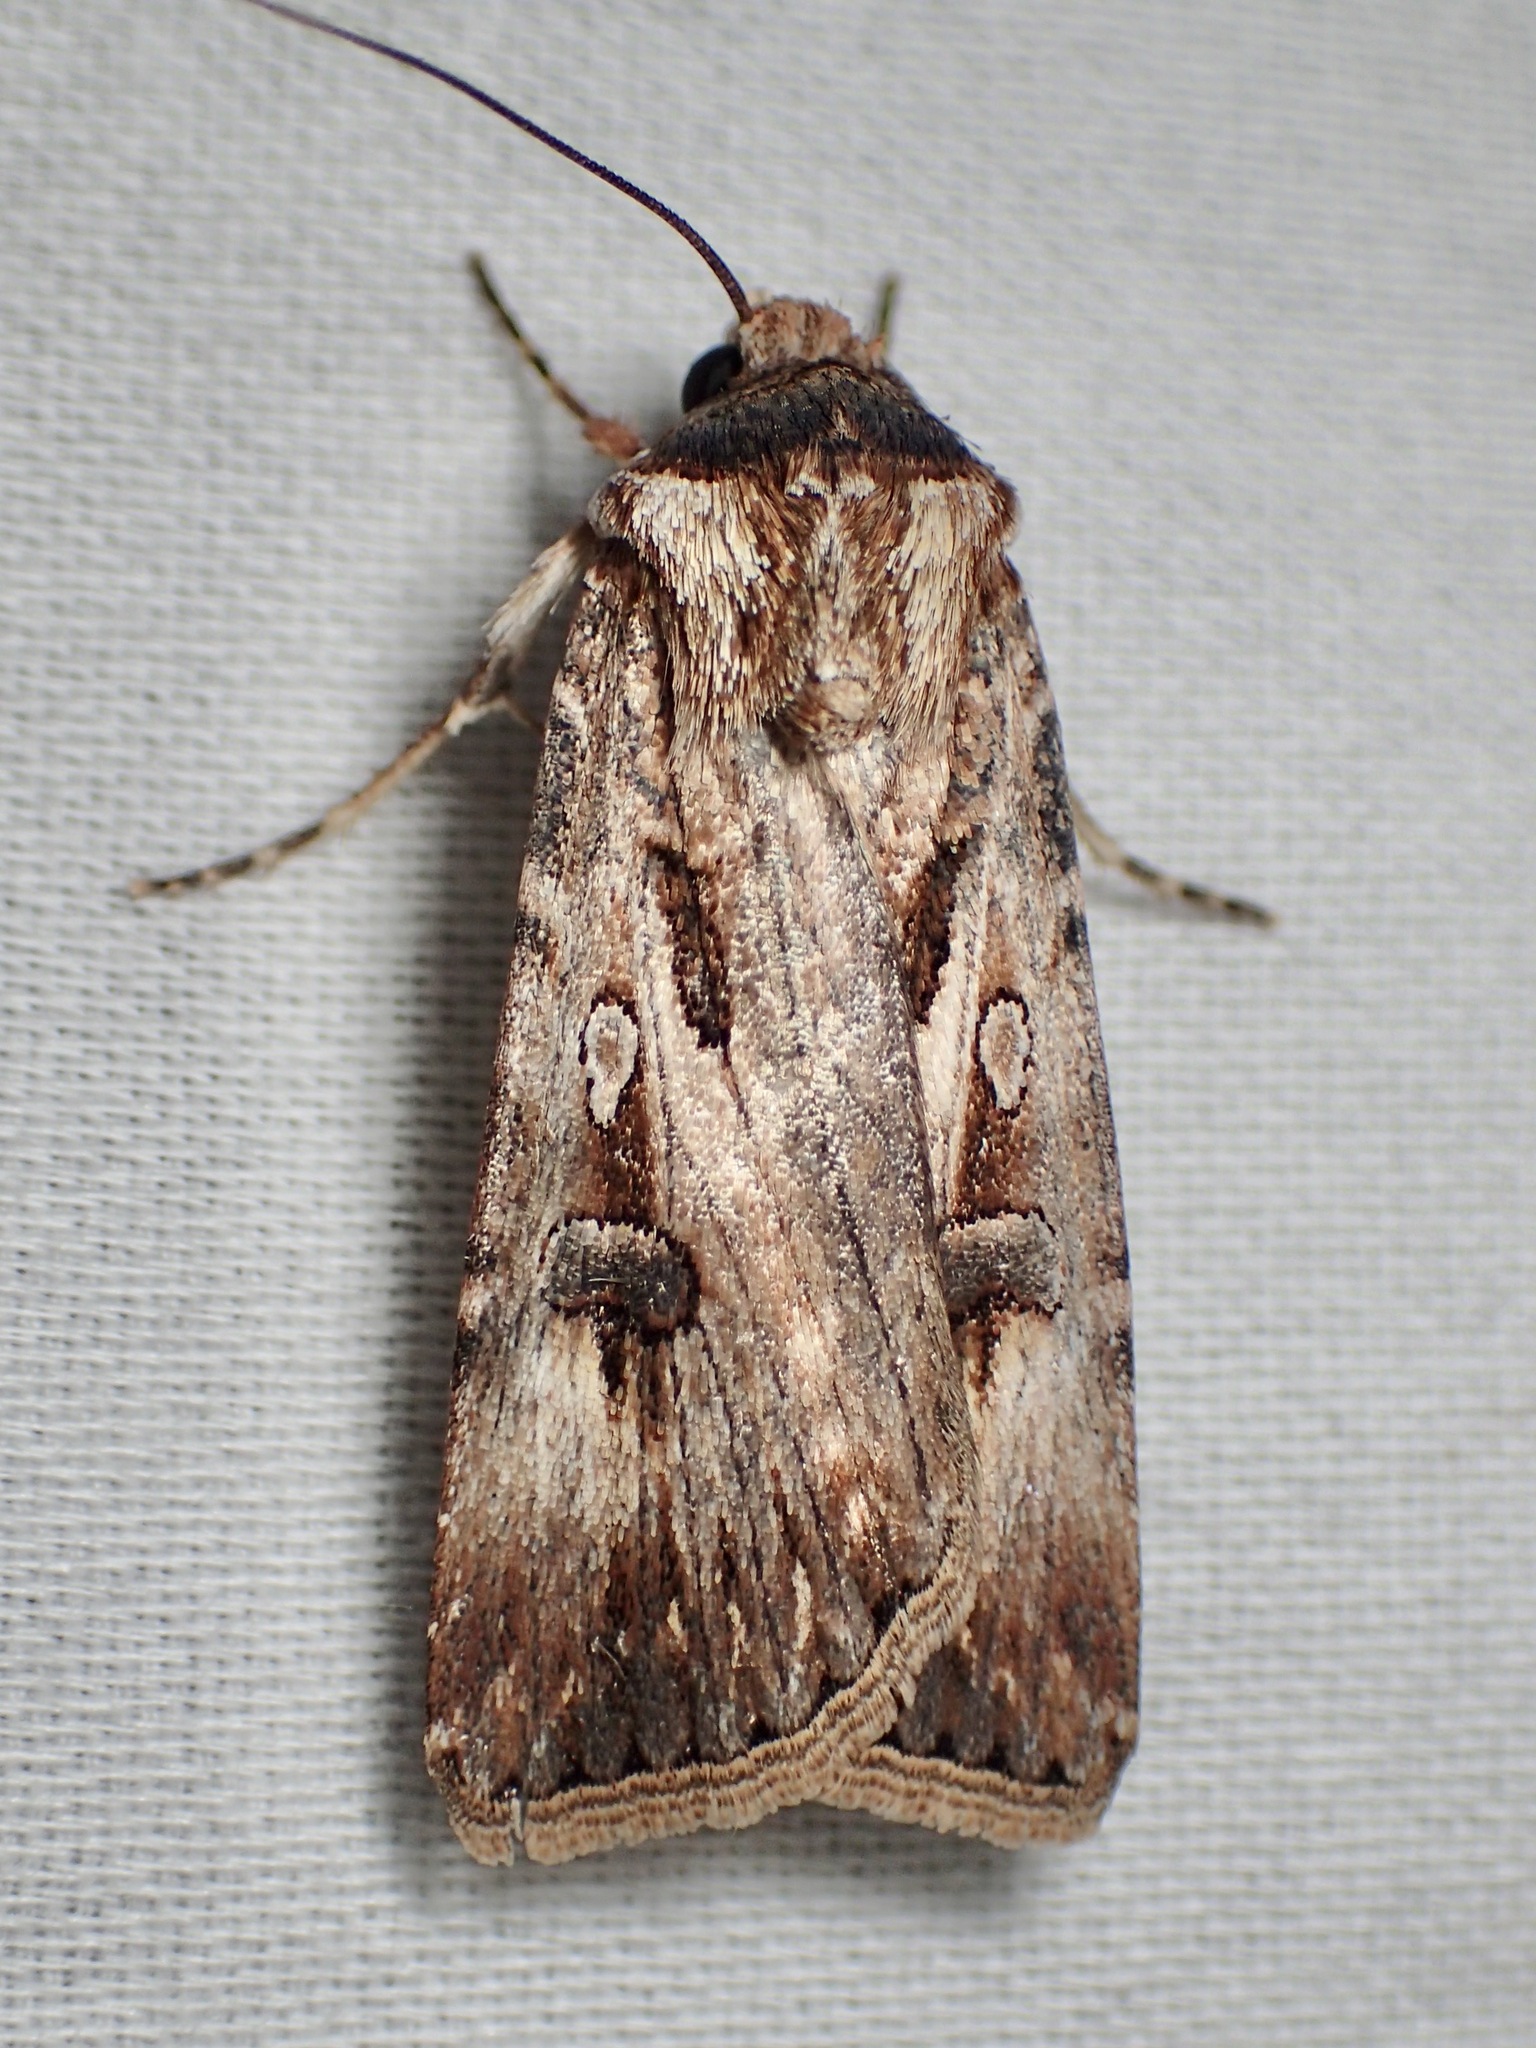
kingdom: Animalia
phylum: Arthropoda
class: Insecta
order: Lepidoptera
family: Noctuidae
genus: Agrotis
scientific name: Agrotis munda
